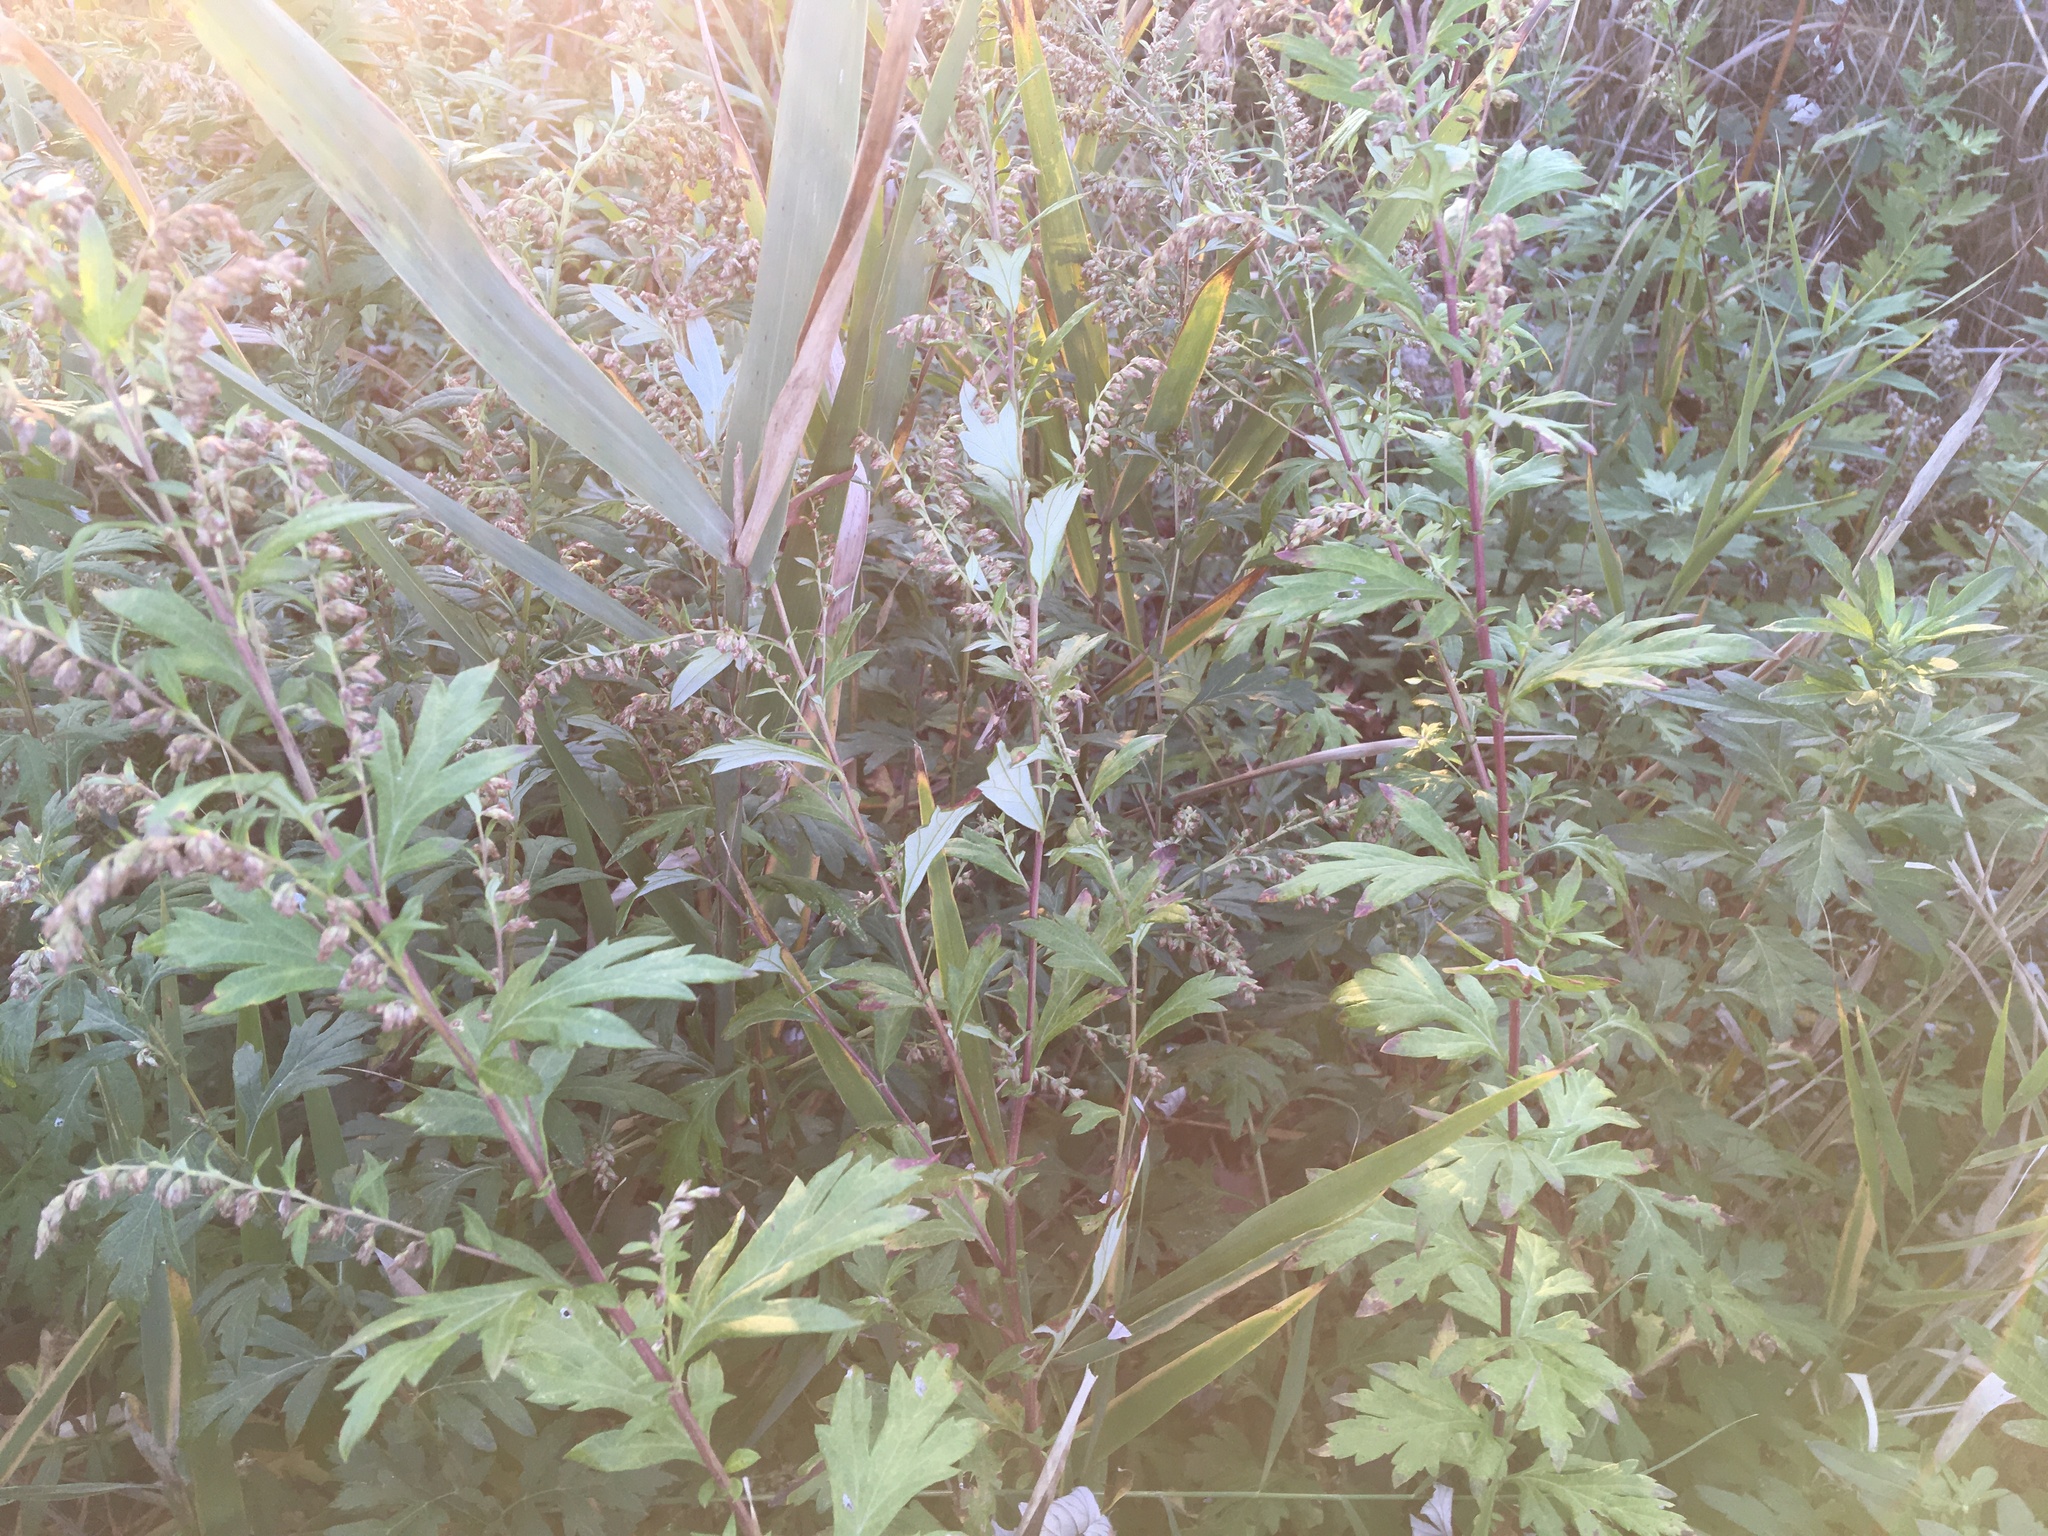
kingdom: Plantae
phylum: Tracheophyta
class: Magnoliopsida
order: Asterales
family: Asteraceae
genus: Artemisia
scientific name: Artemisia vulgaris
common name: Mugwort
